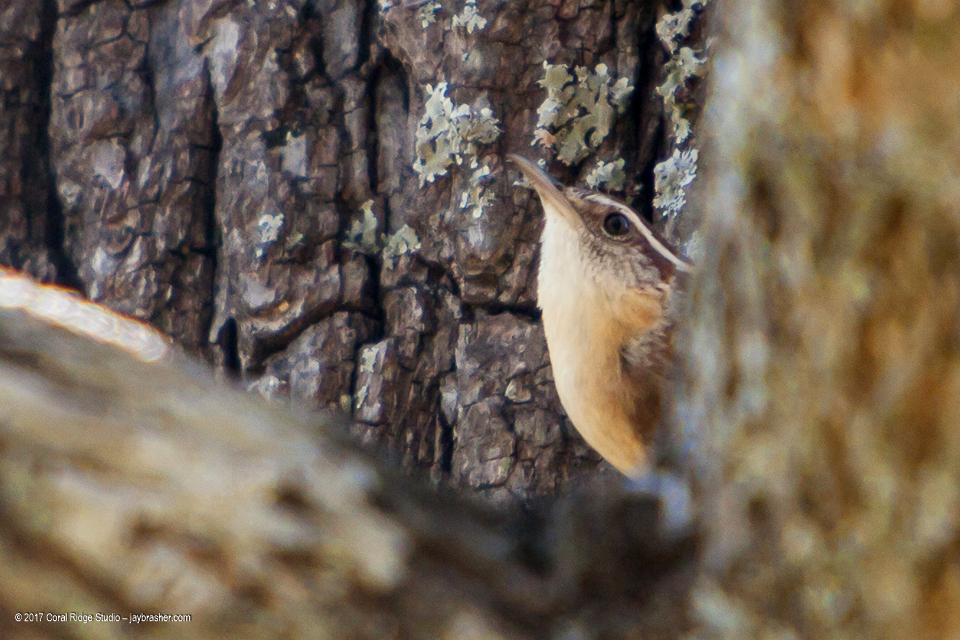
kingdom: Animalia
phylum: Chordata
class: Aves
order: Passeriformes
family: Troglodytidae
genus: Thryothorus
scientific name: Thryothorus ludovicianus
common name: Carolina wren
